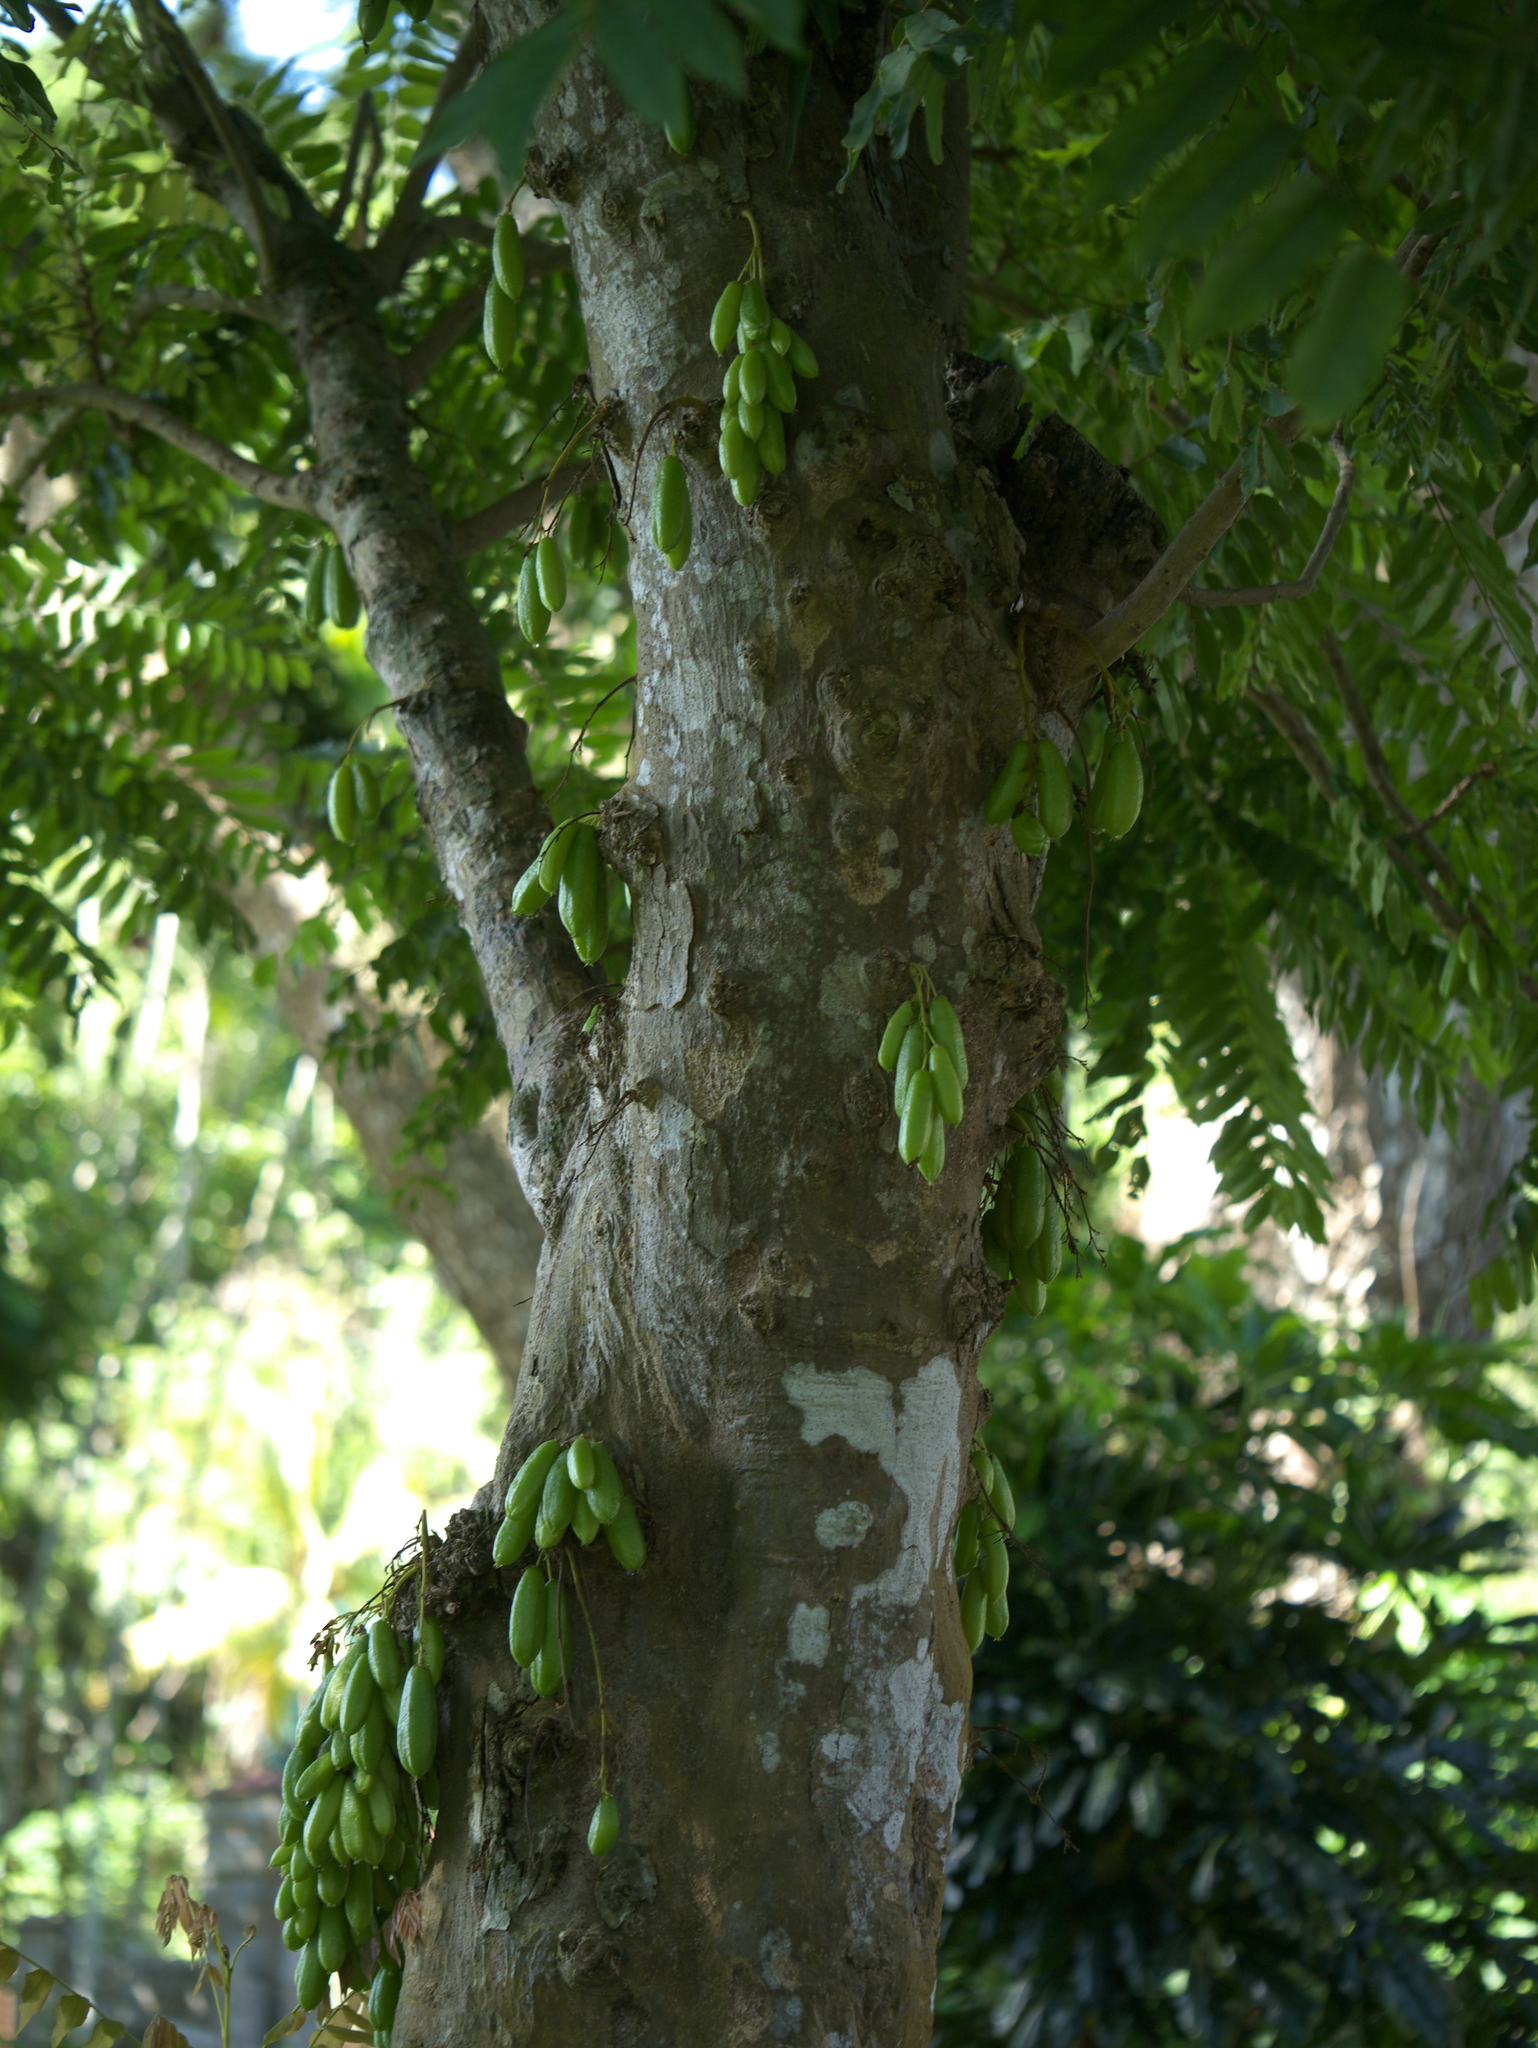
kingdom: Plantae
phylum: Tracheophyta
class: Magnoliopsida
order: Oxalidales
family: Oxalidaceae
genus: Averrhoa
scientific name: Averrhoa bilimbi
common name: Bilimbi
